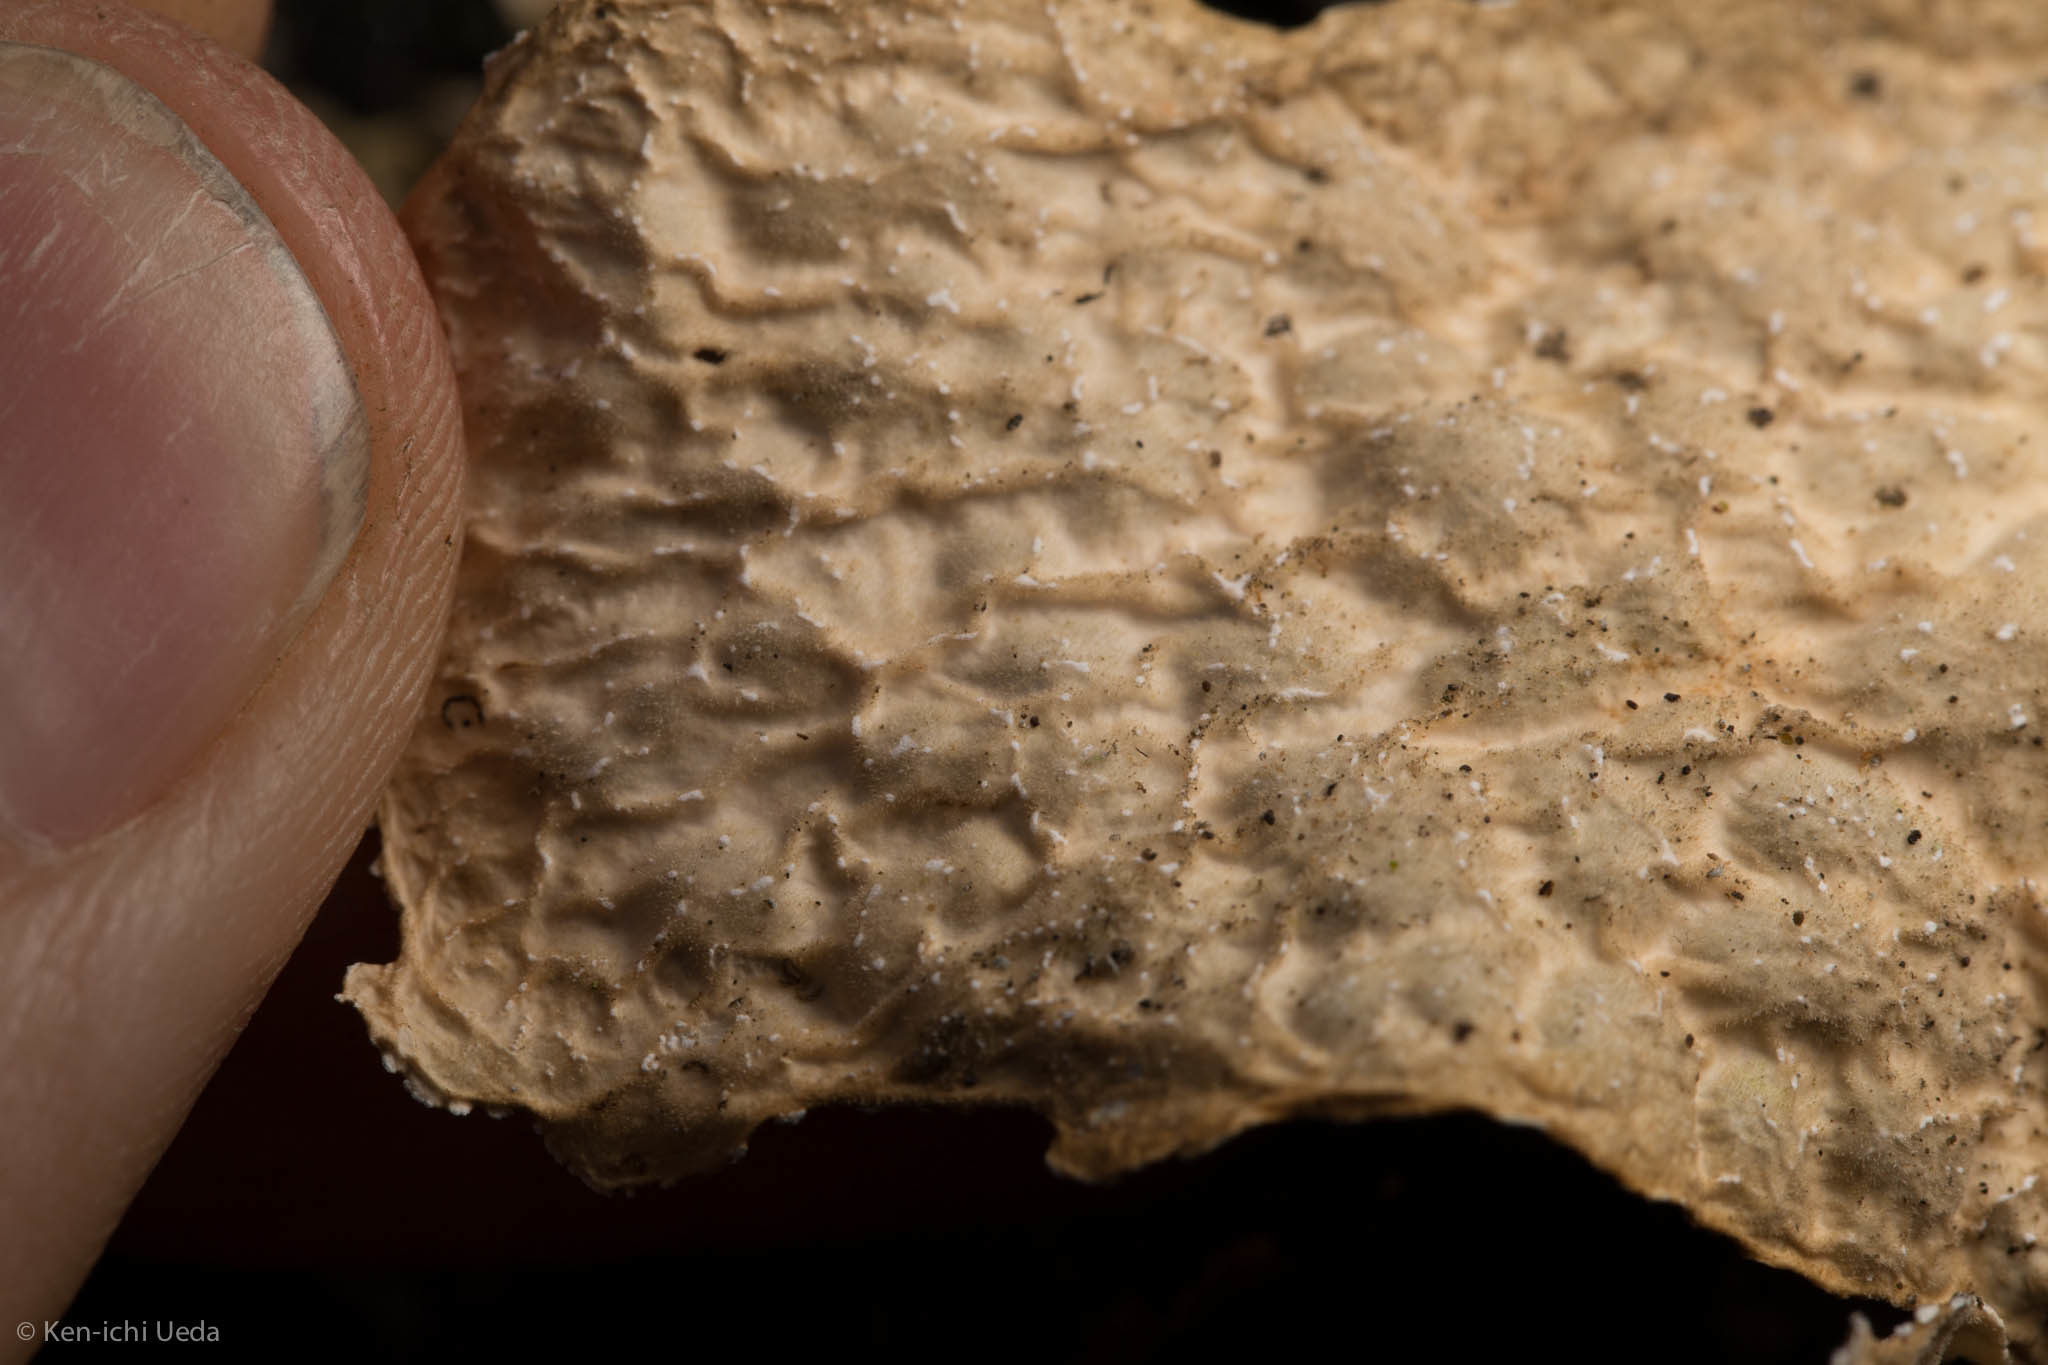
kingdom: Fungi
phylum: Ascomycota
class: Lecanoromycetes
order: Peltigerales
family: Lobariaceae
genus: Lobaria
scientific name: Lobaria anomala
